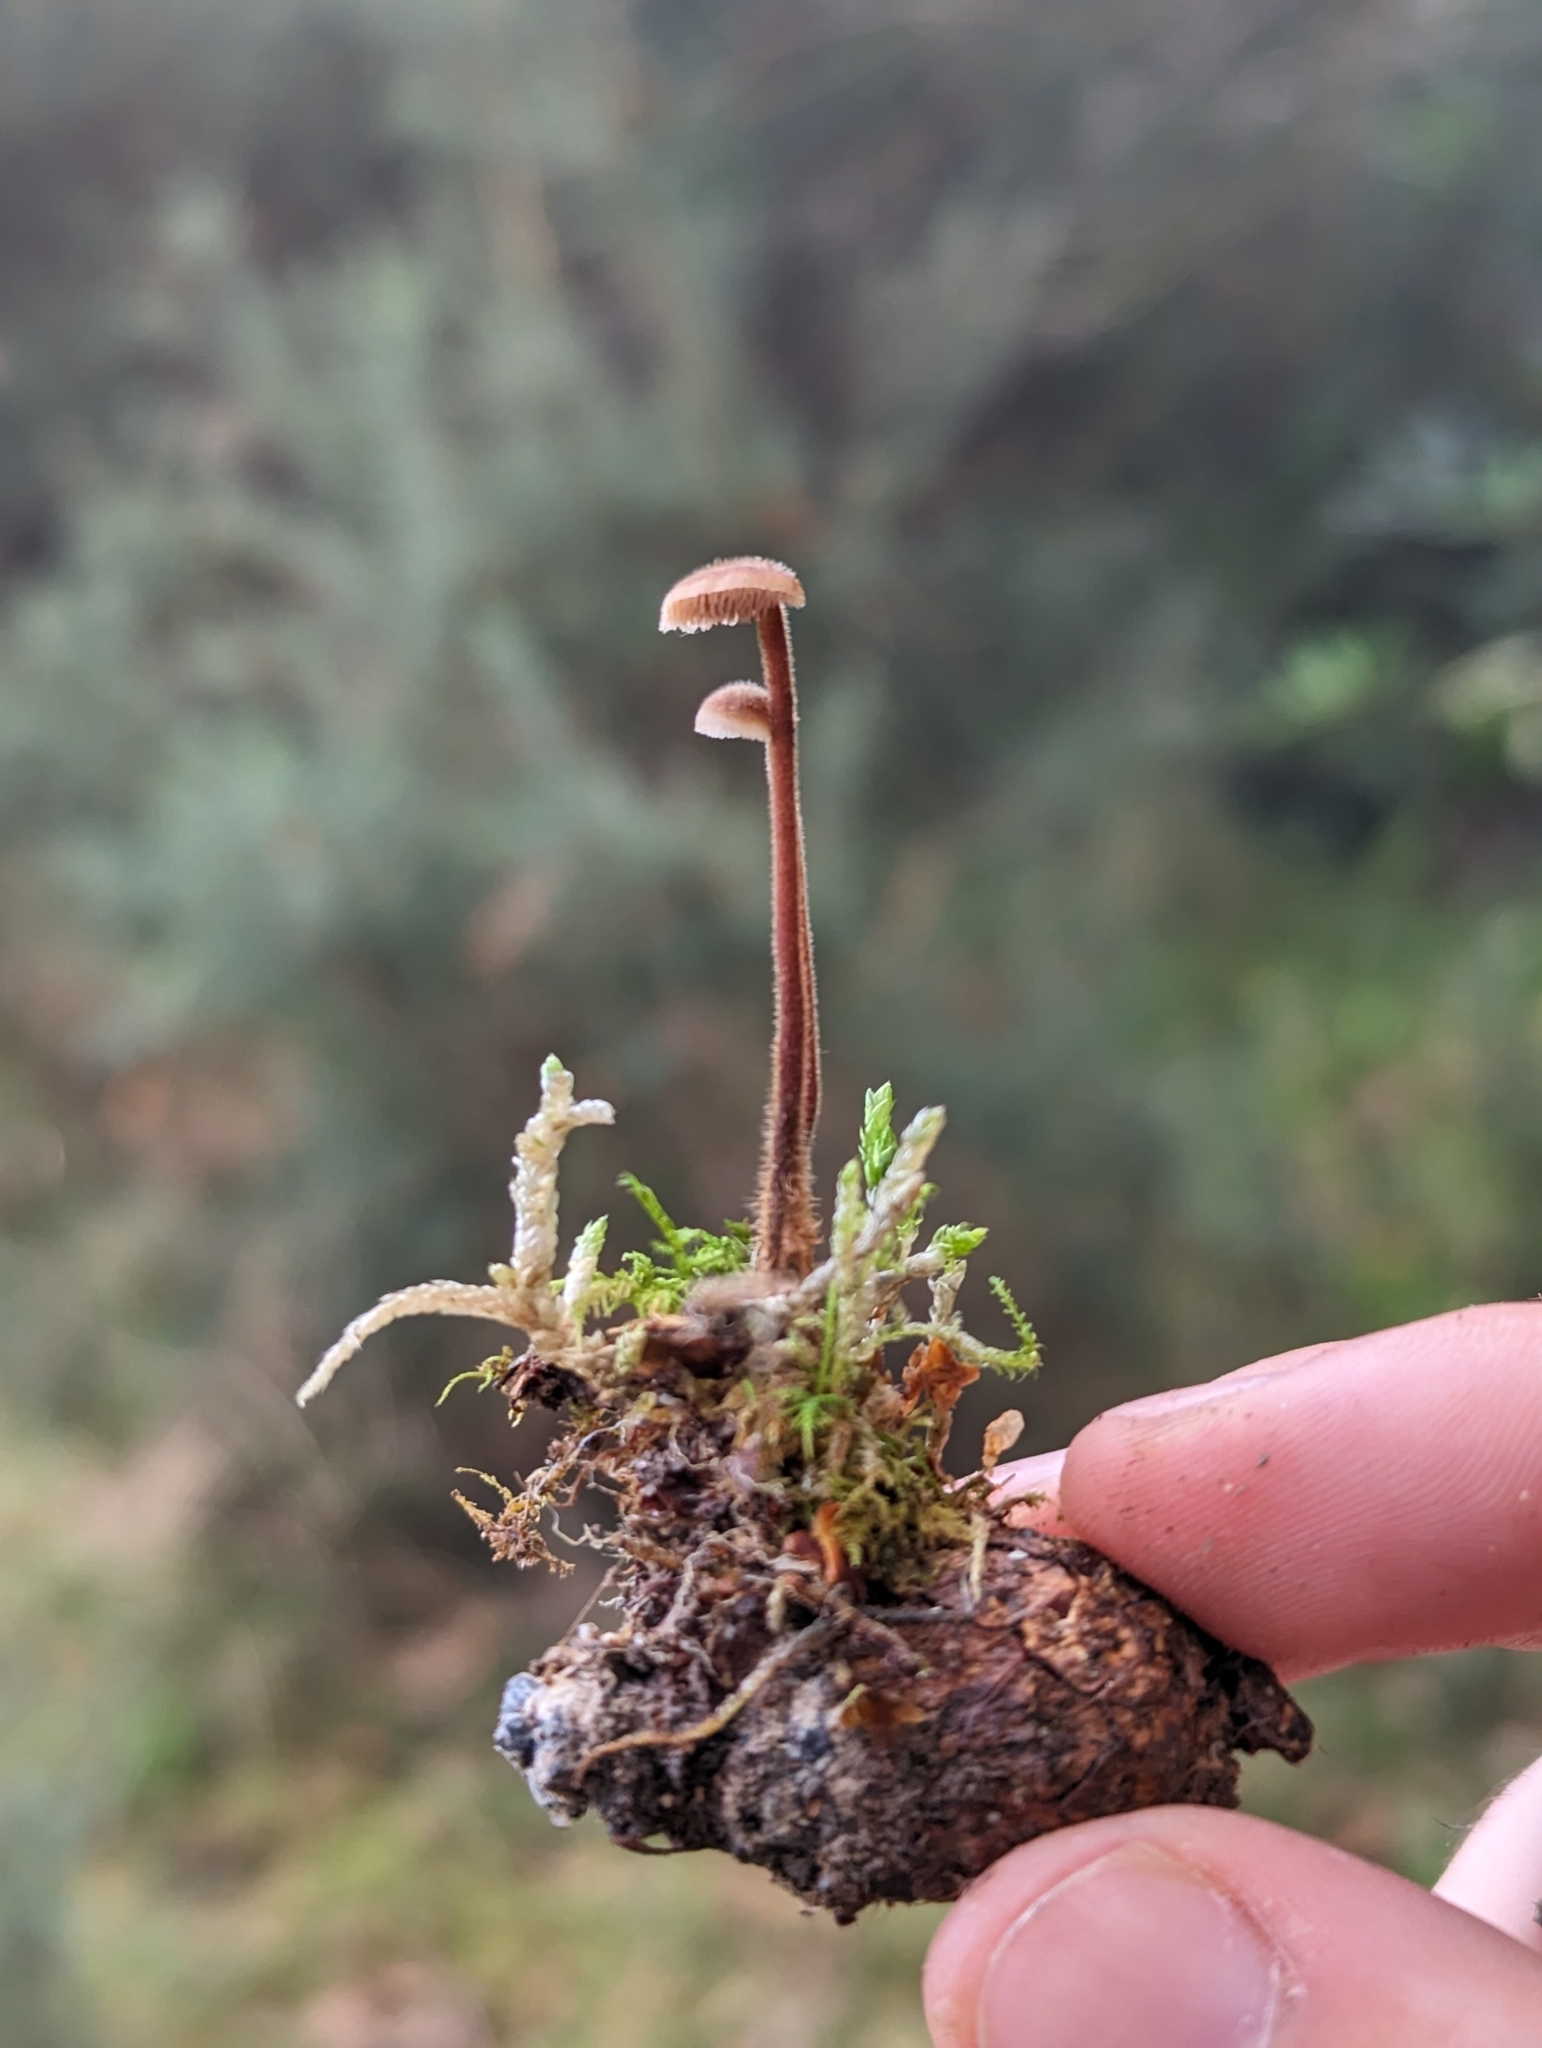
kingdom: Fungi
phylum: Basidiomycota
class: Agaricomycetes
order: Russulales
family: Auriscalpiaceae
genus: Auriscalpium
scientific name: Auriscalpium vulgare
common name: Earpick fungus
